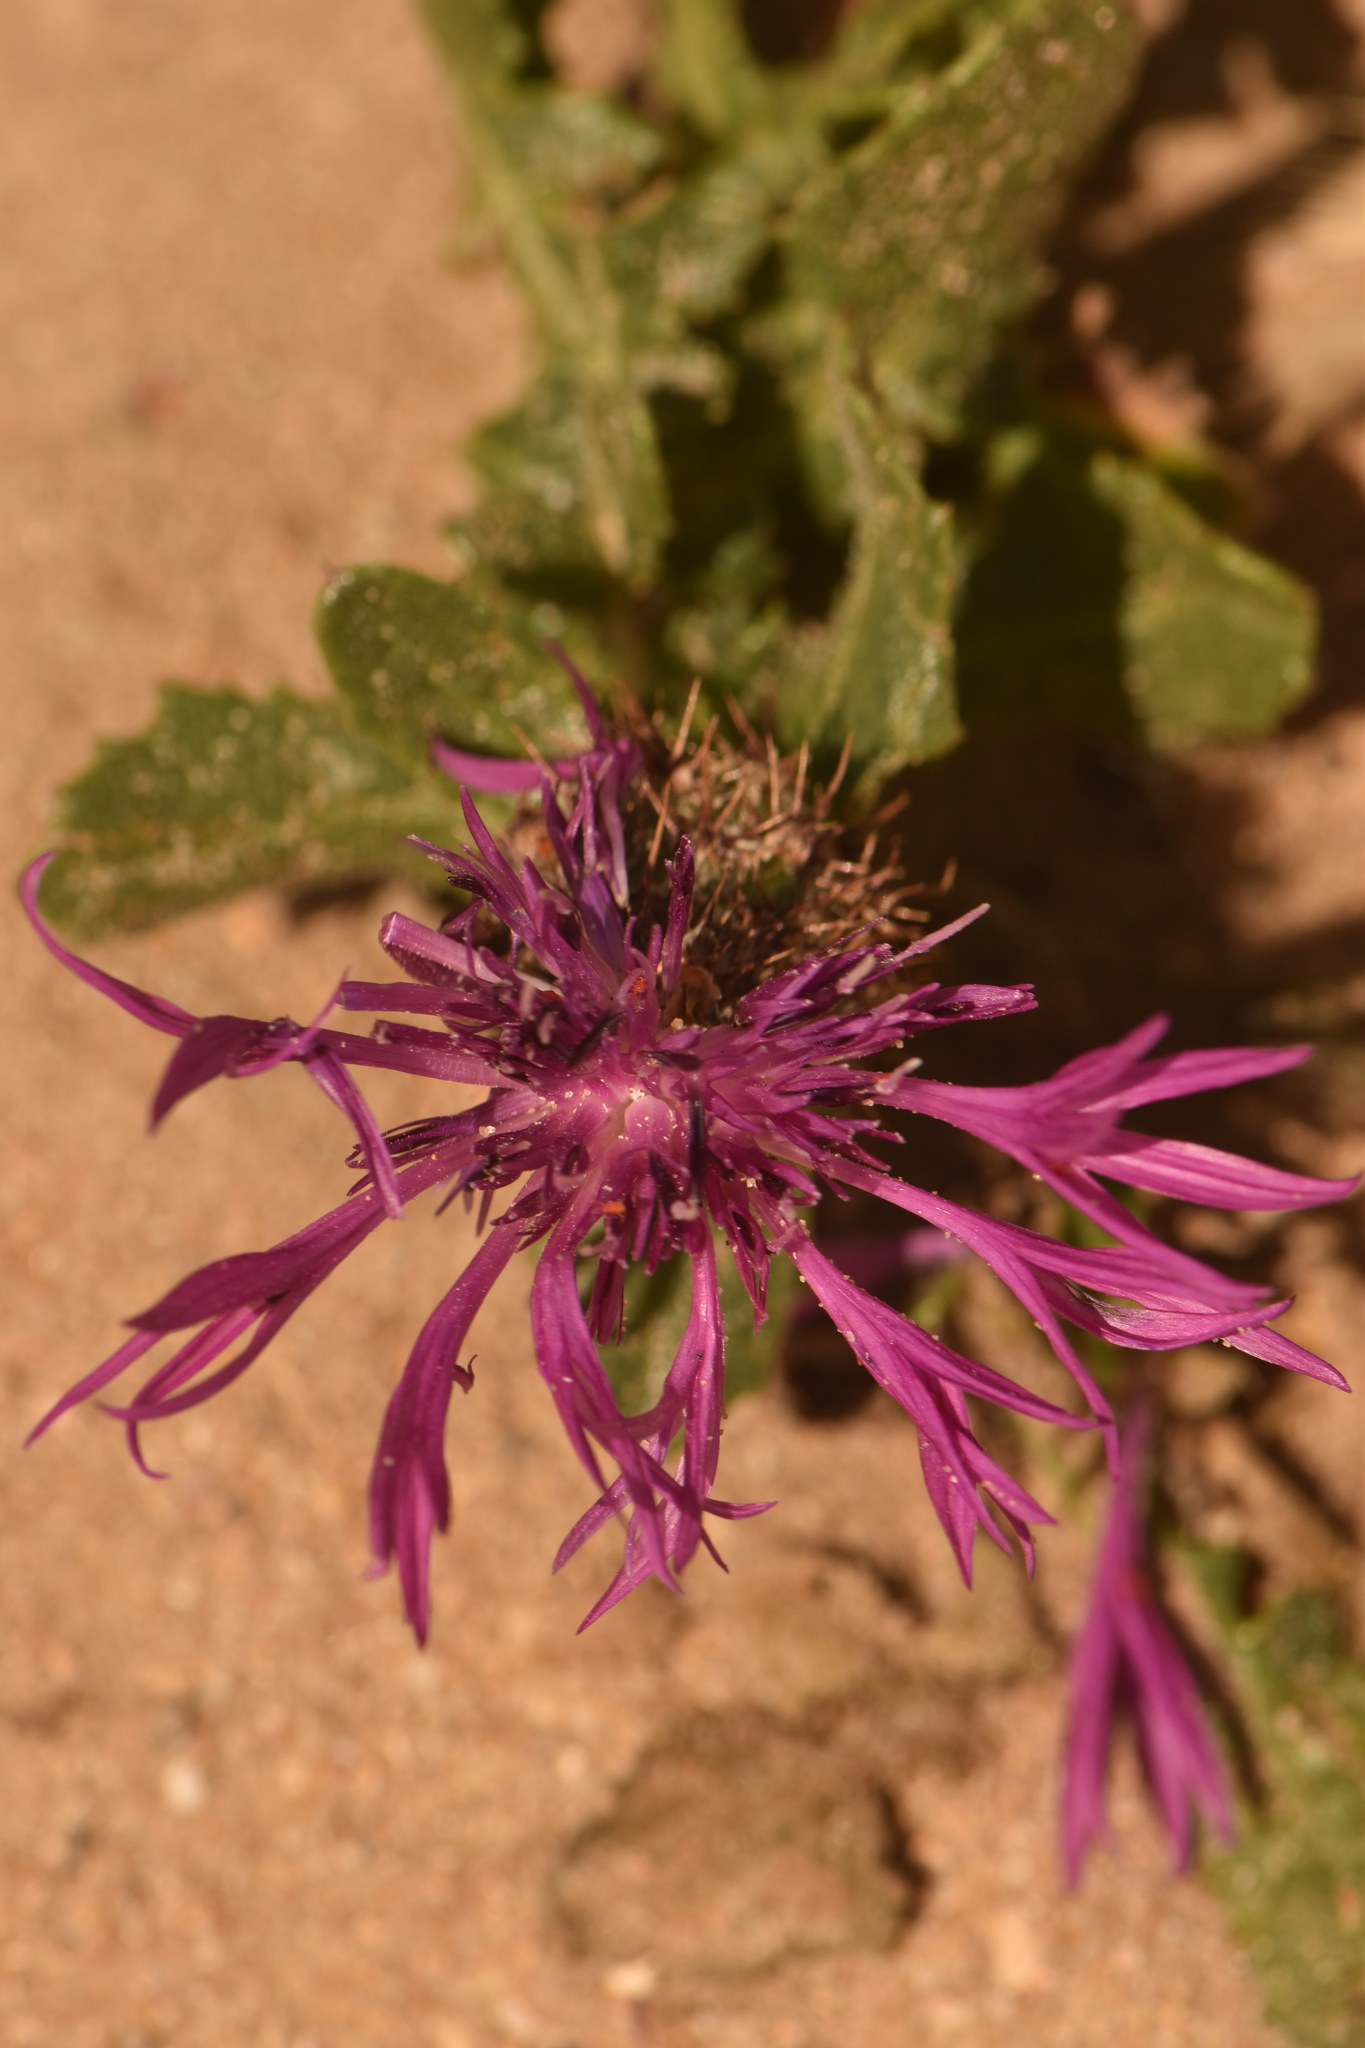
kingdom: Plantae
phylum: Tracheophyta
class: Magnoliopsida
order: Asterales
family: Asteraceae
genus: Centaurea
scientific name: Centaurea polyacantha
